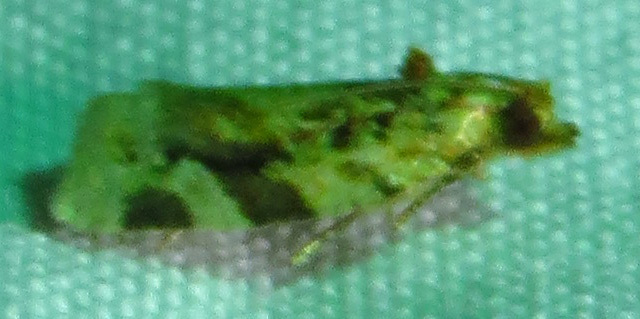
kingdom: Animalia
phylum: Arthropoda
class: Insecta
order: Lepidoptera
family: Tortricidae
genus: Argyrotaenia
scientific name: Argyrotaenia velutinana
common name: Red-banded leafroller moth
